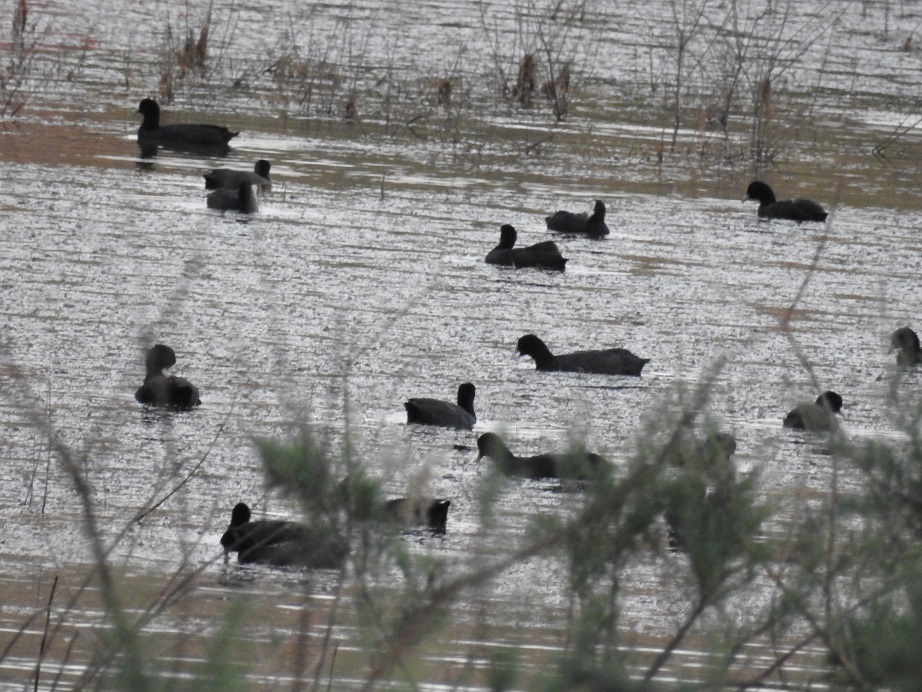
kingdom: Animalia
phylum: Chordata
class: Aves
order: Gruiformes
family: Rallidae
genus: Fulica
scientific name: Fulica atra
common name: Eurasian coot
